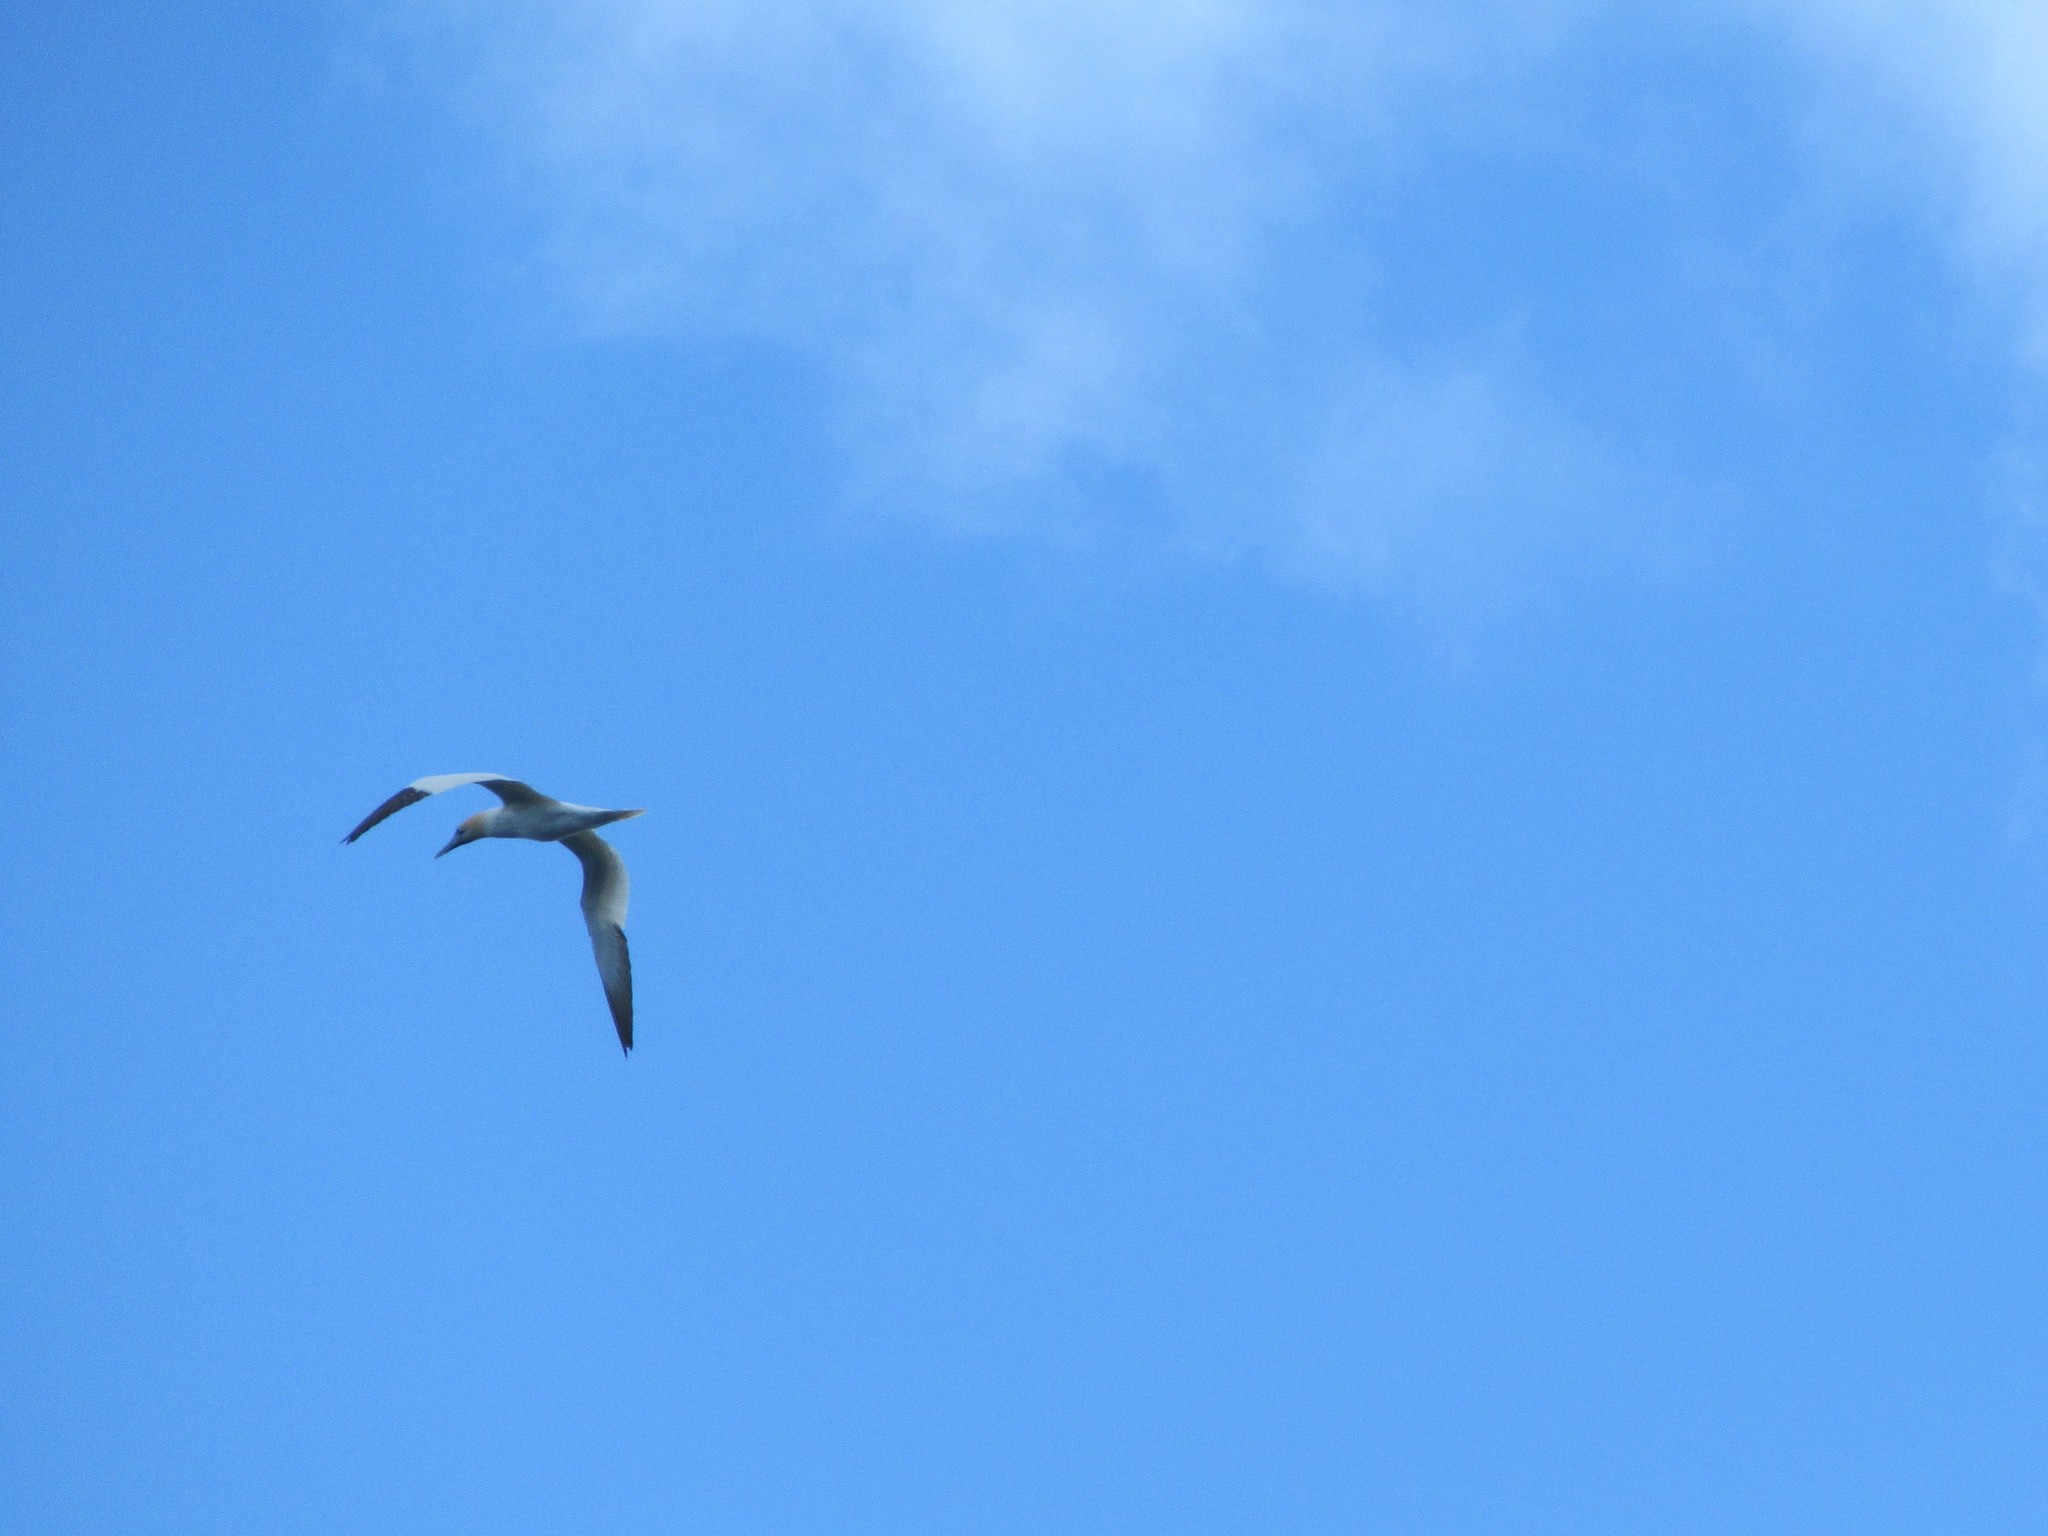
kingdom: Animalia
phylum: Chordata
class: Aves
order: Suliformes
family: Sulidae
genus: Morus
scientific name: Morus bassanus
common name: Northern gannet
